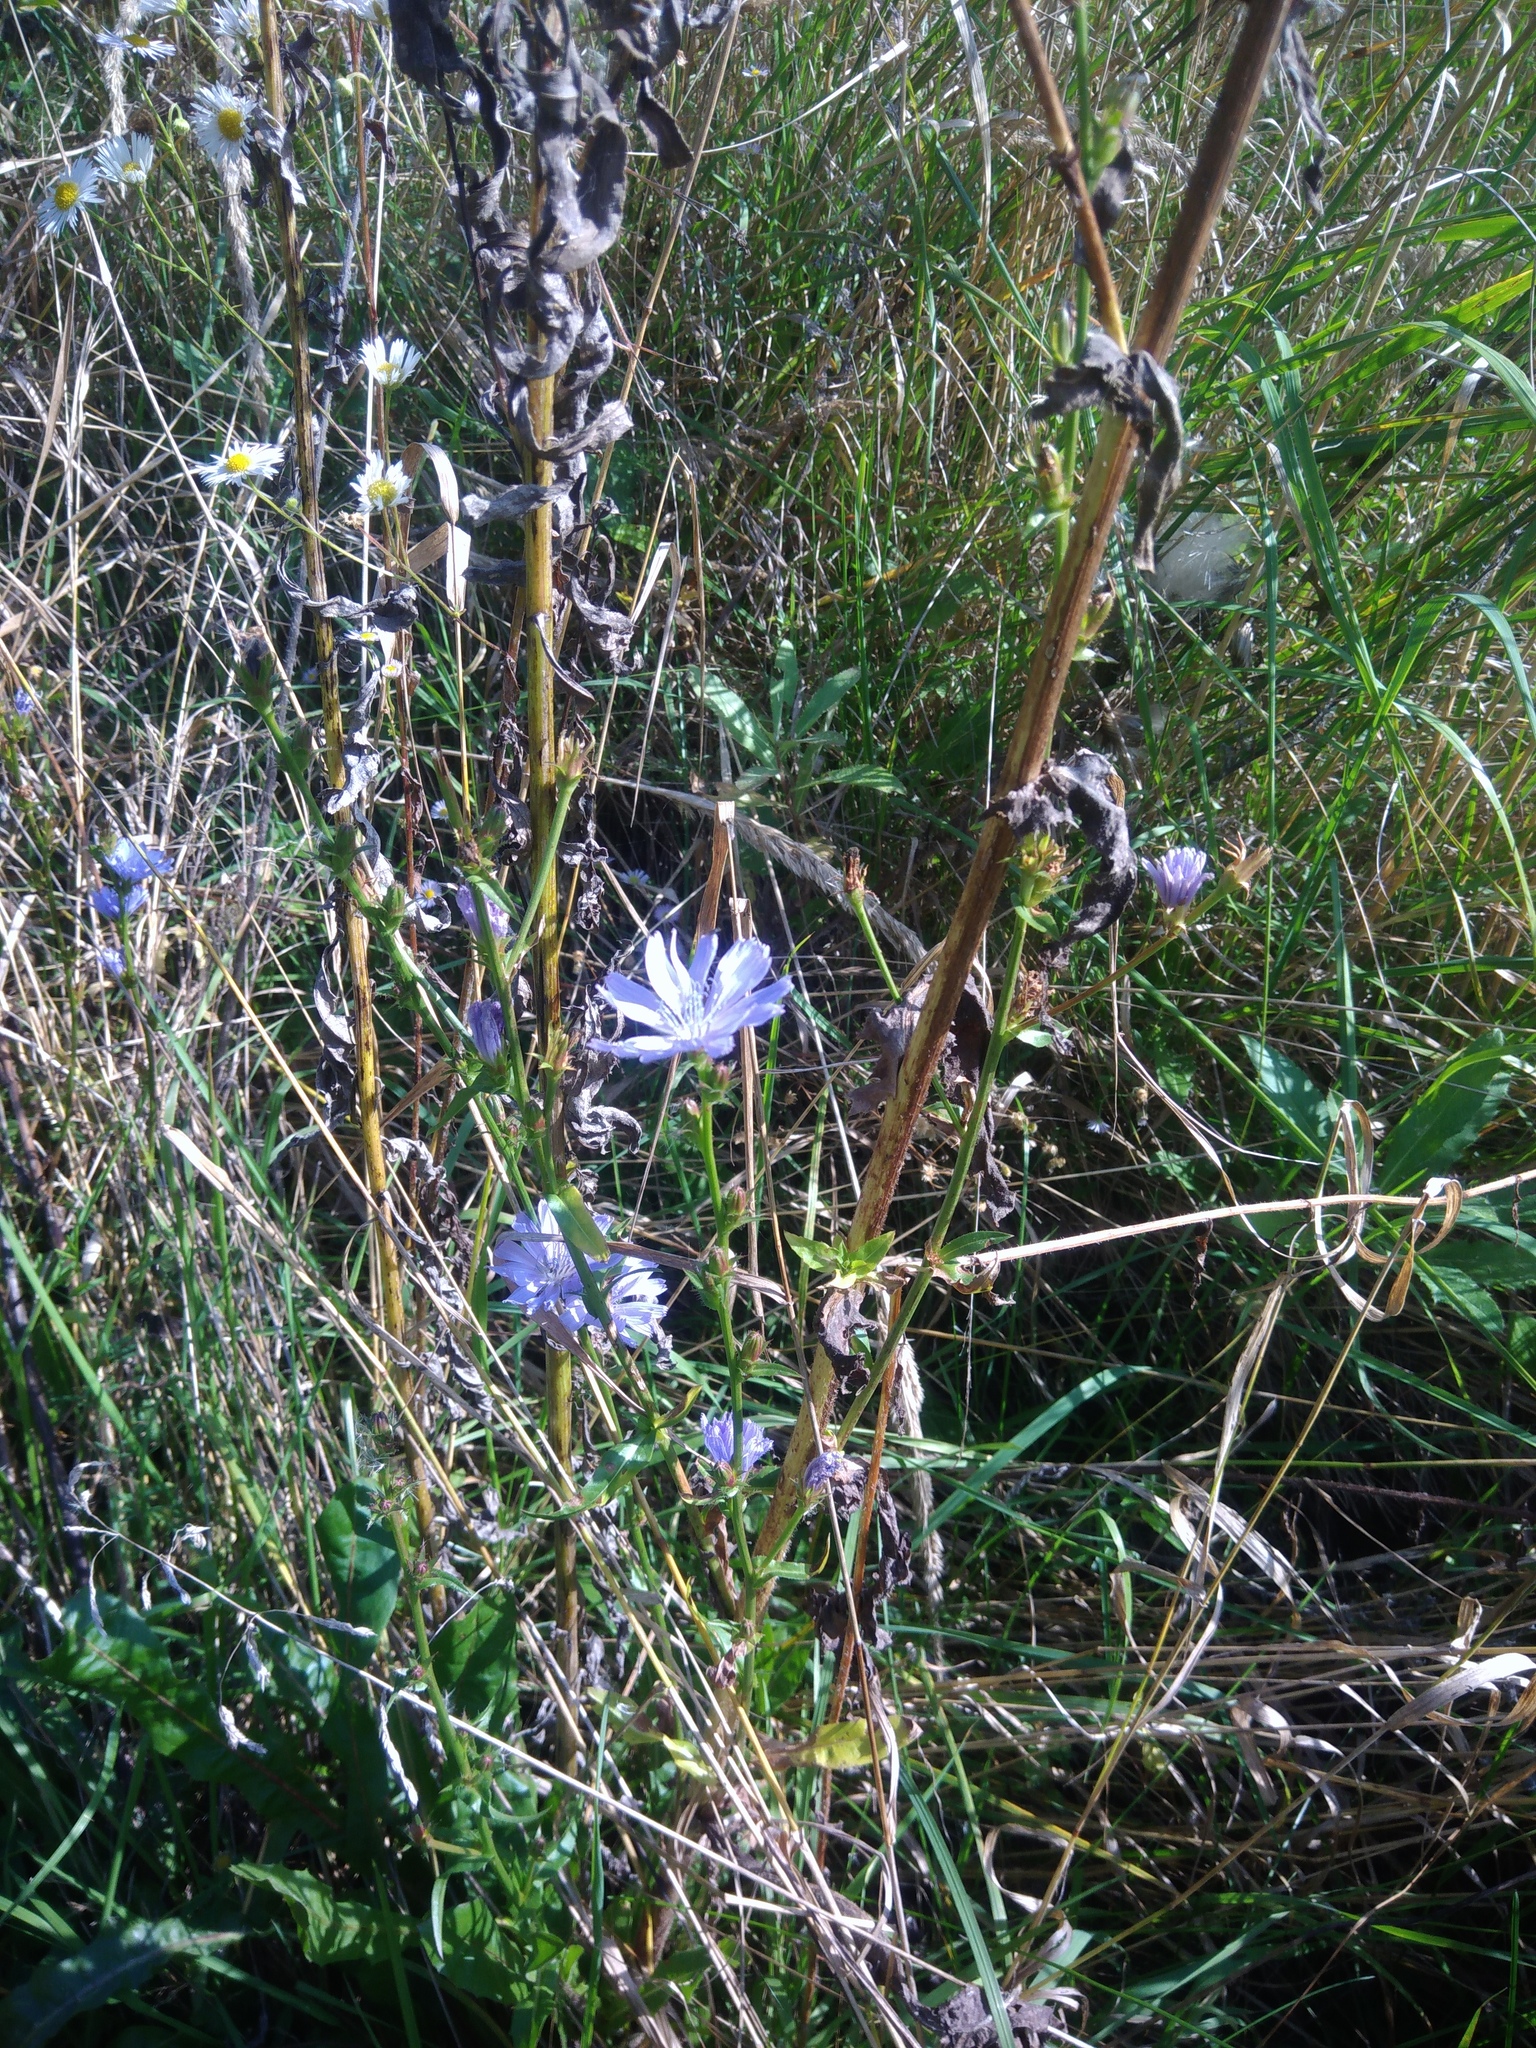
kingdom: Plantae
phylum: Tracheophyta
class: Magnoliopsida
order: Asterales
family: Asteraceae
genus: Cichorium
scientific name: Cichorium intybus
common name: Chicory
